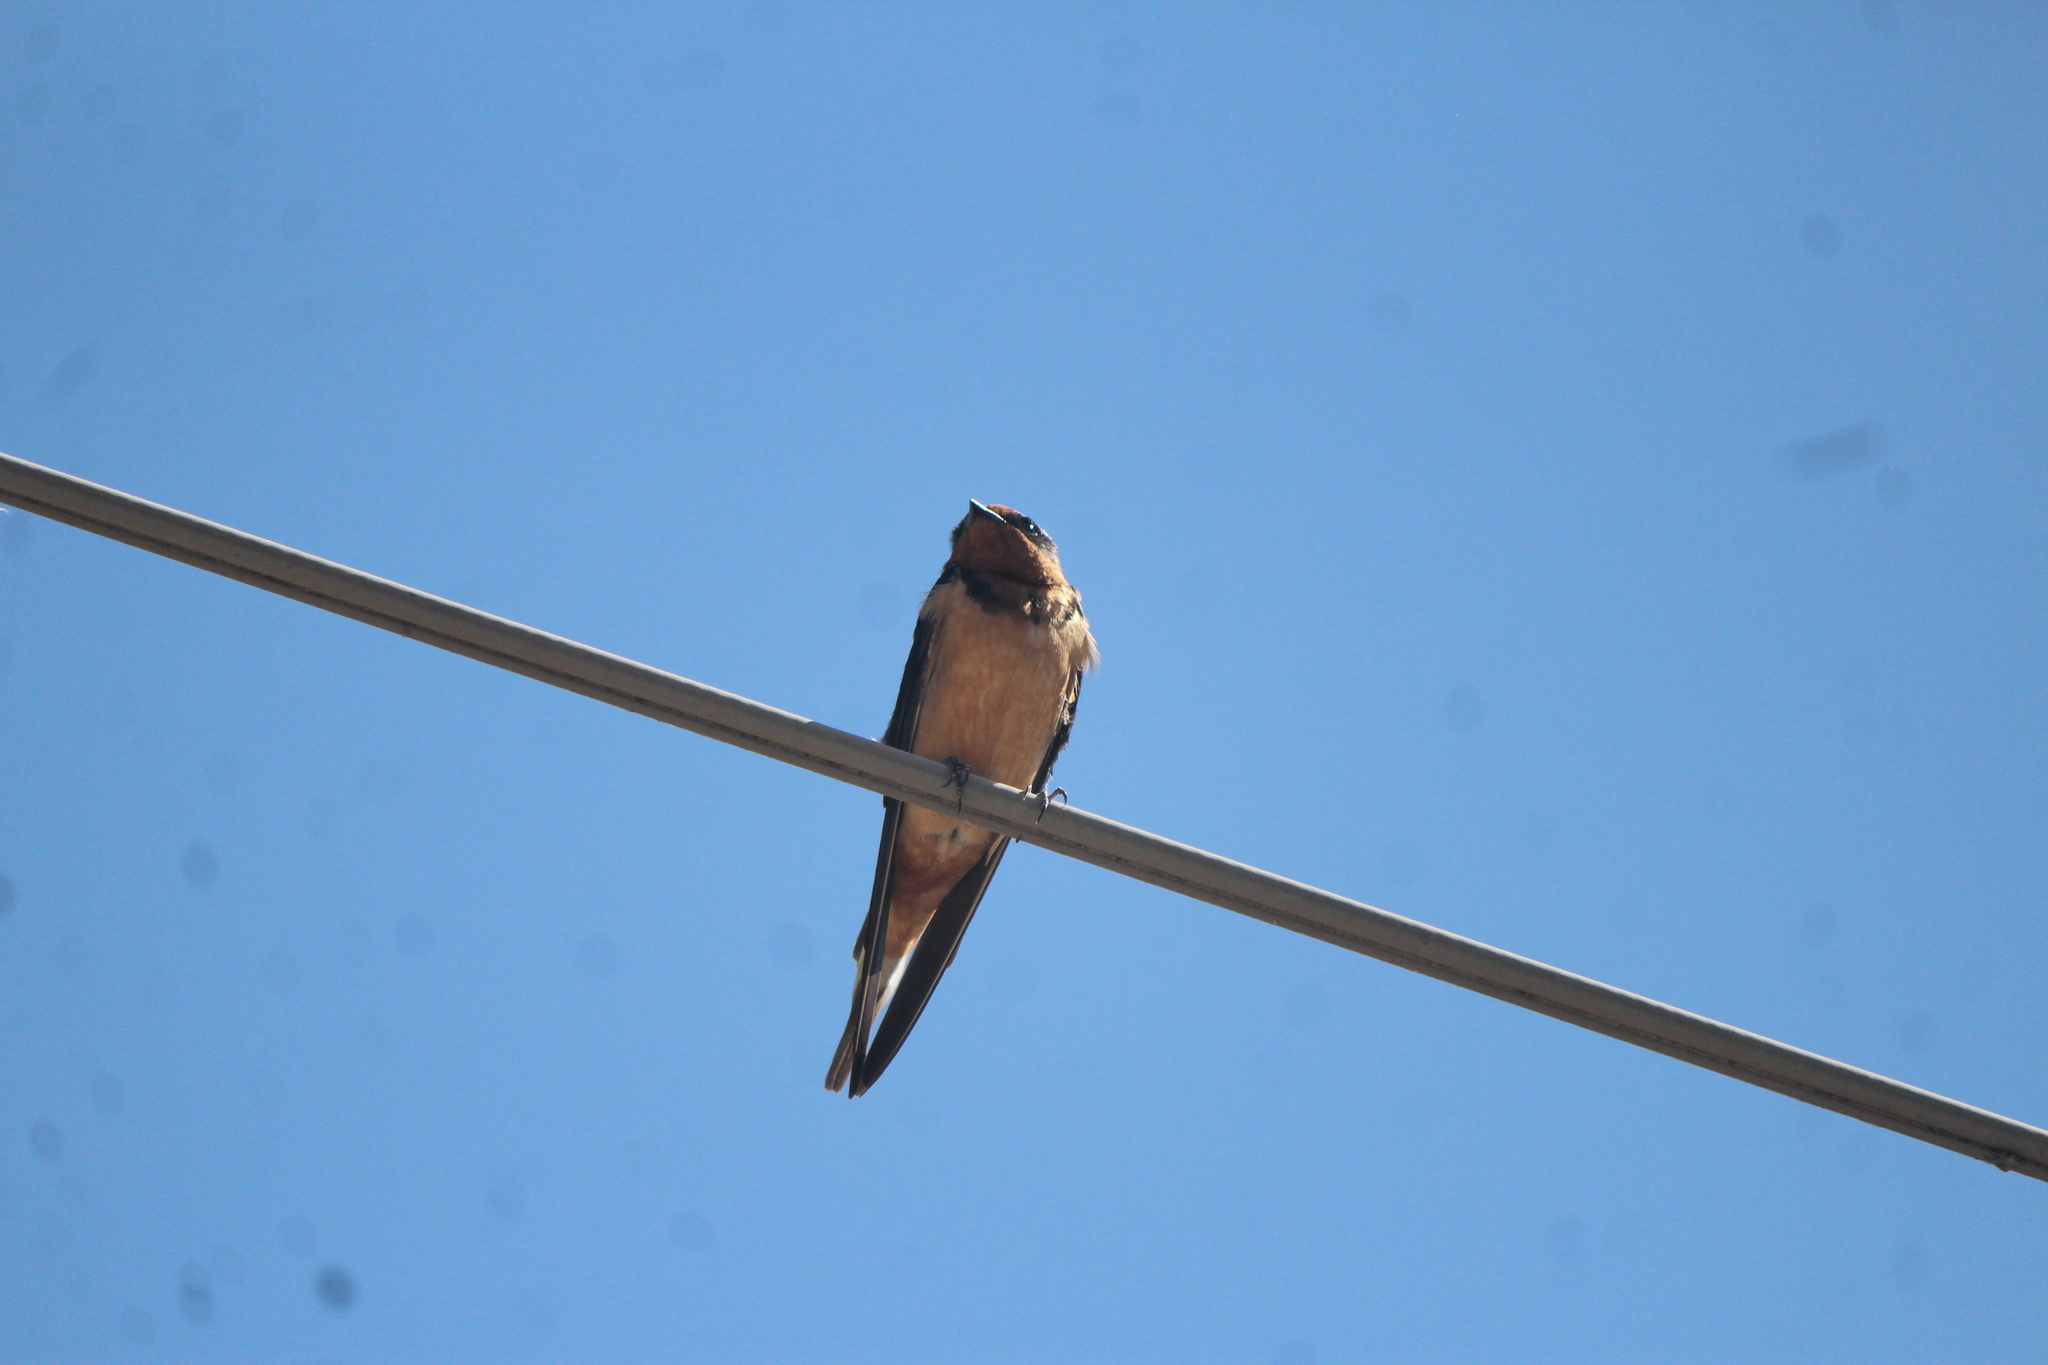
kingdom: Animalia
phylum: Chordata
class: Aves
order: Passeriformes
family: Hirundinidae
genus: Hirundo
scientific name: Hirundo rustica
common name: Barn swallow
